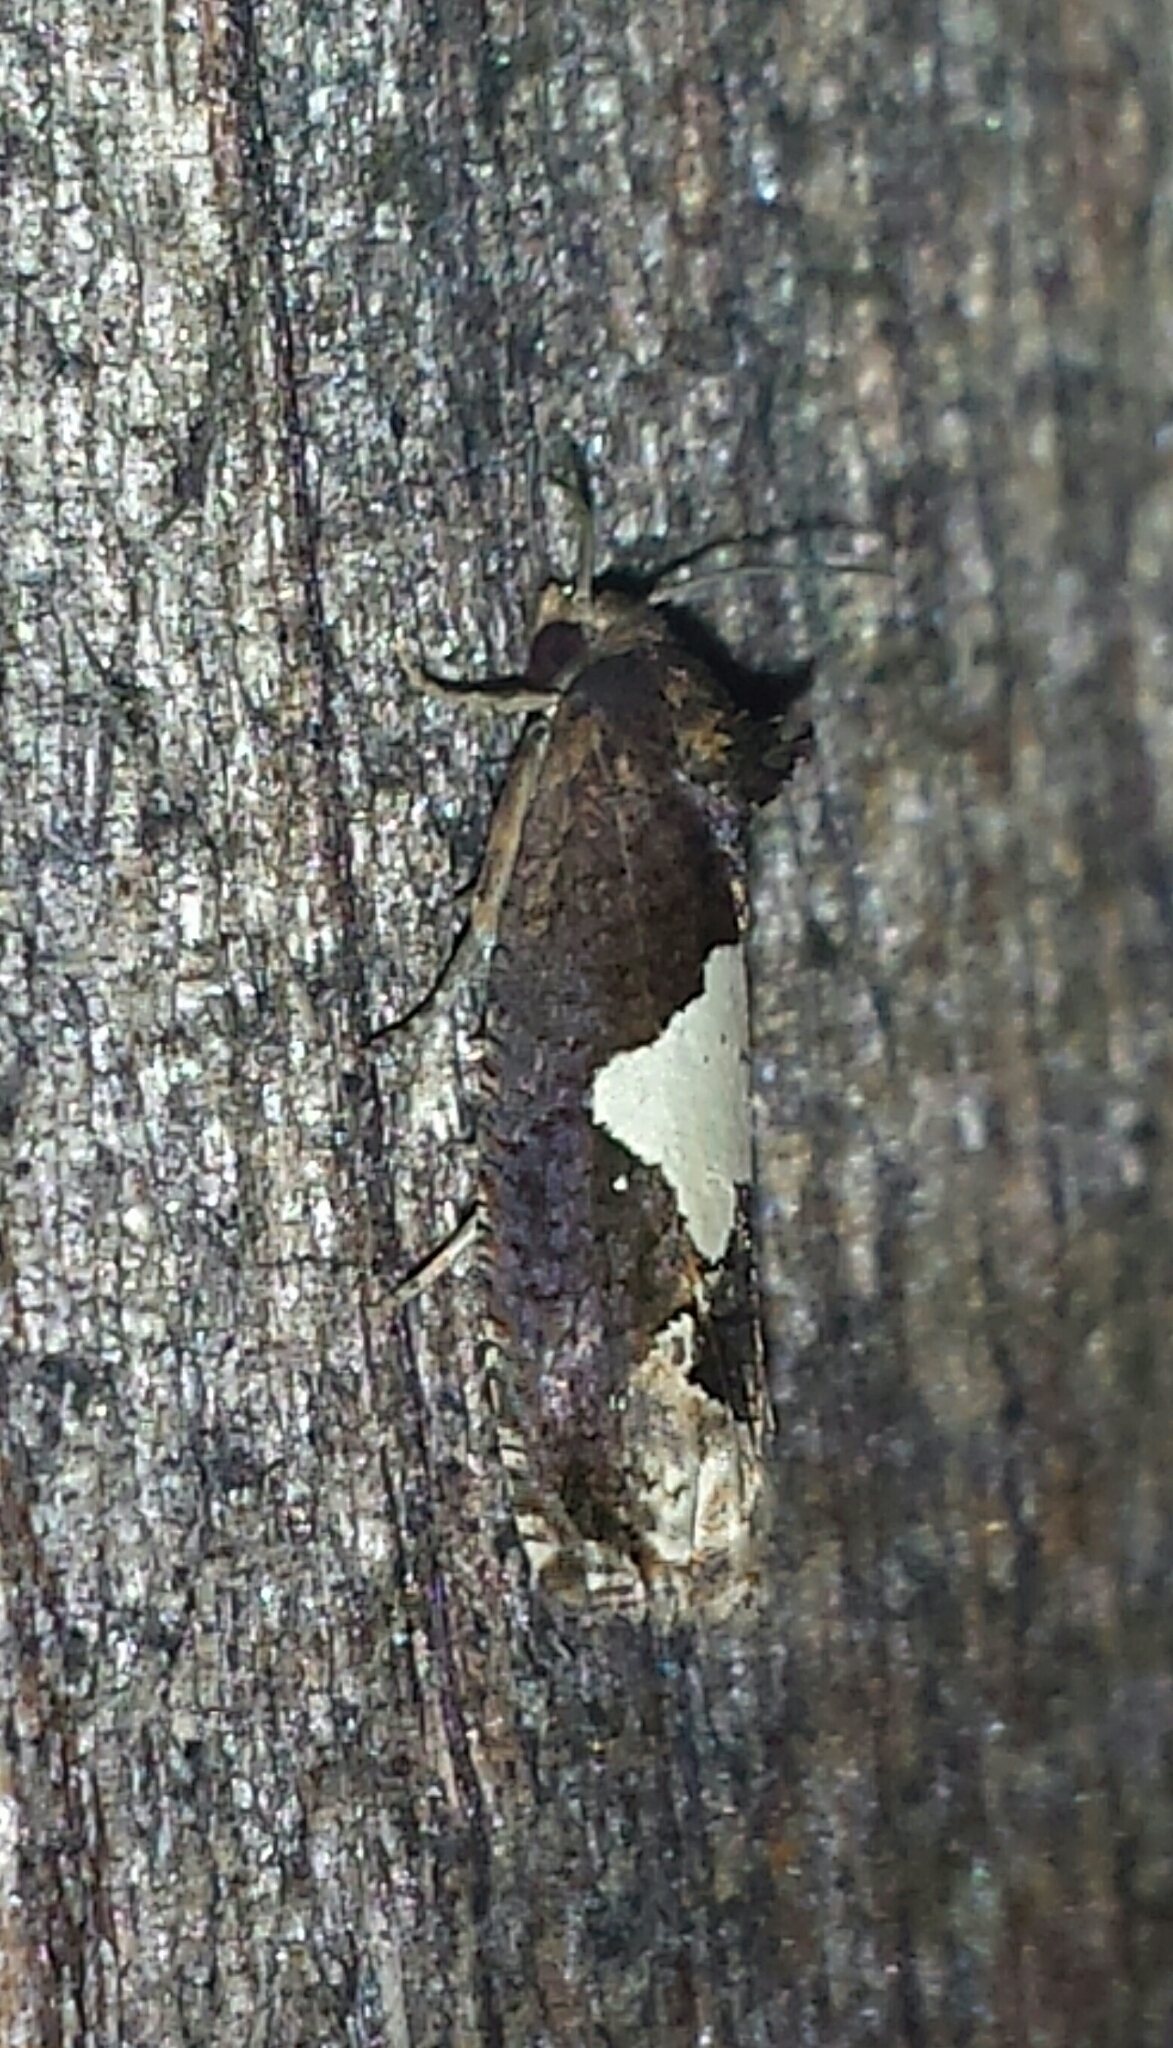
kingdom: Animalia
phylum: Arthropoda
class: Insecta
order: Lepidoptera
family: Tortricidae
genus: Epiblema
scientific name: Epiblema otiosana
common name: Bidens borer moth
